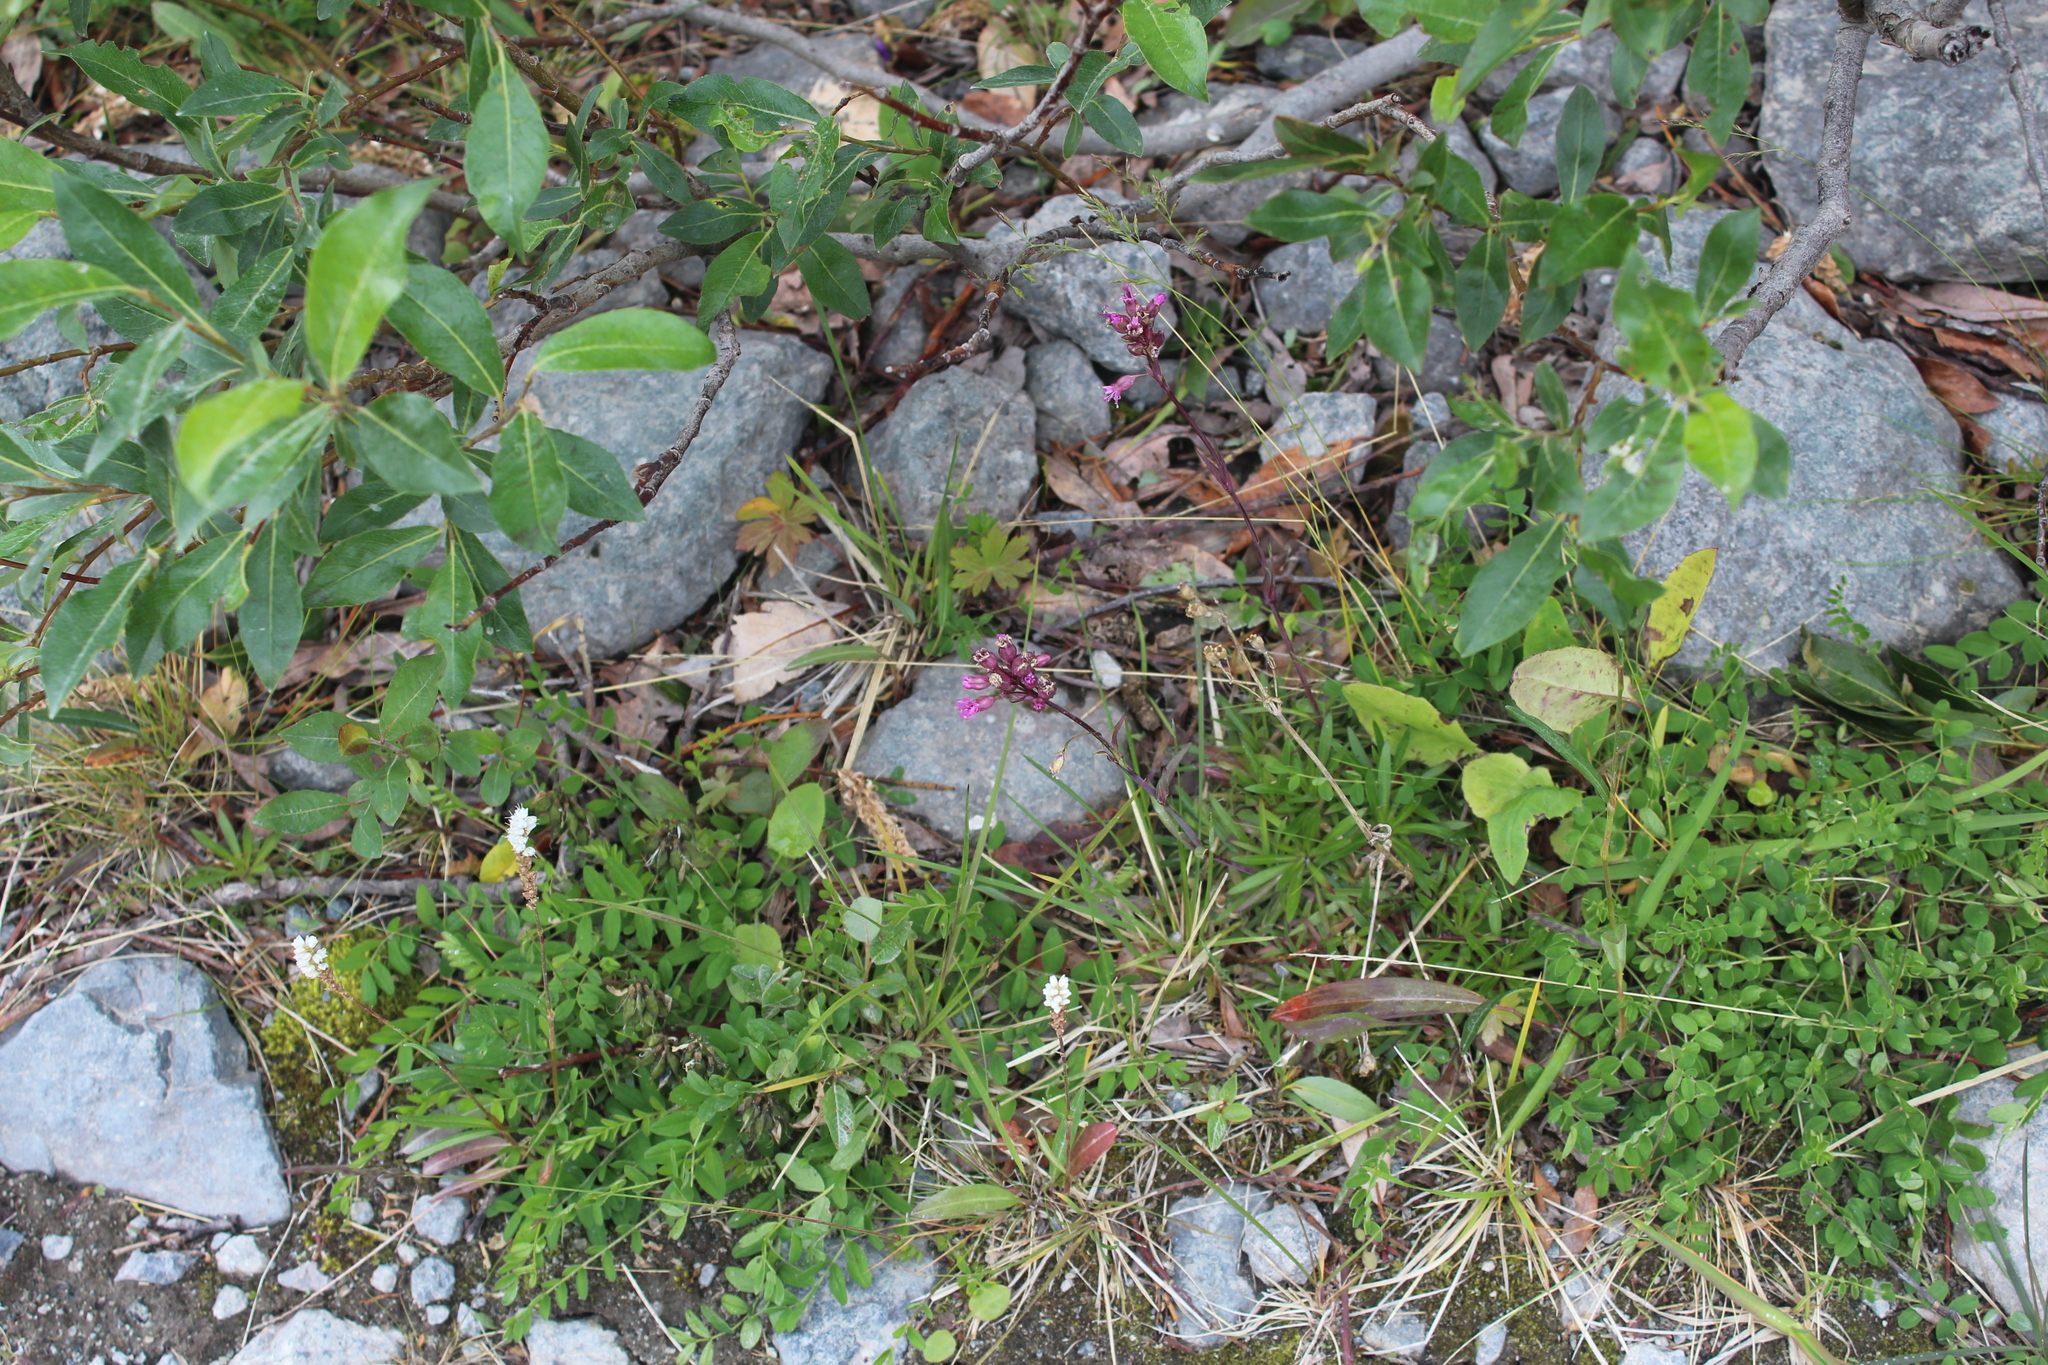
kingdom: Plantae
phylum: Tracheophyta
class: Magnoliopsida
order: Caryophyllales
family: Caryophyllaceae
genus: Viscaria
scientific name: Viscaria alpina
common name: Alpine campion
